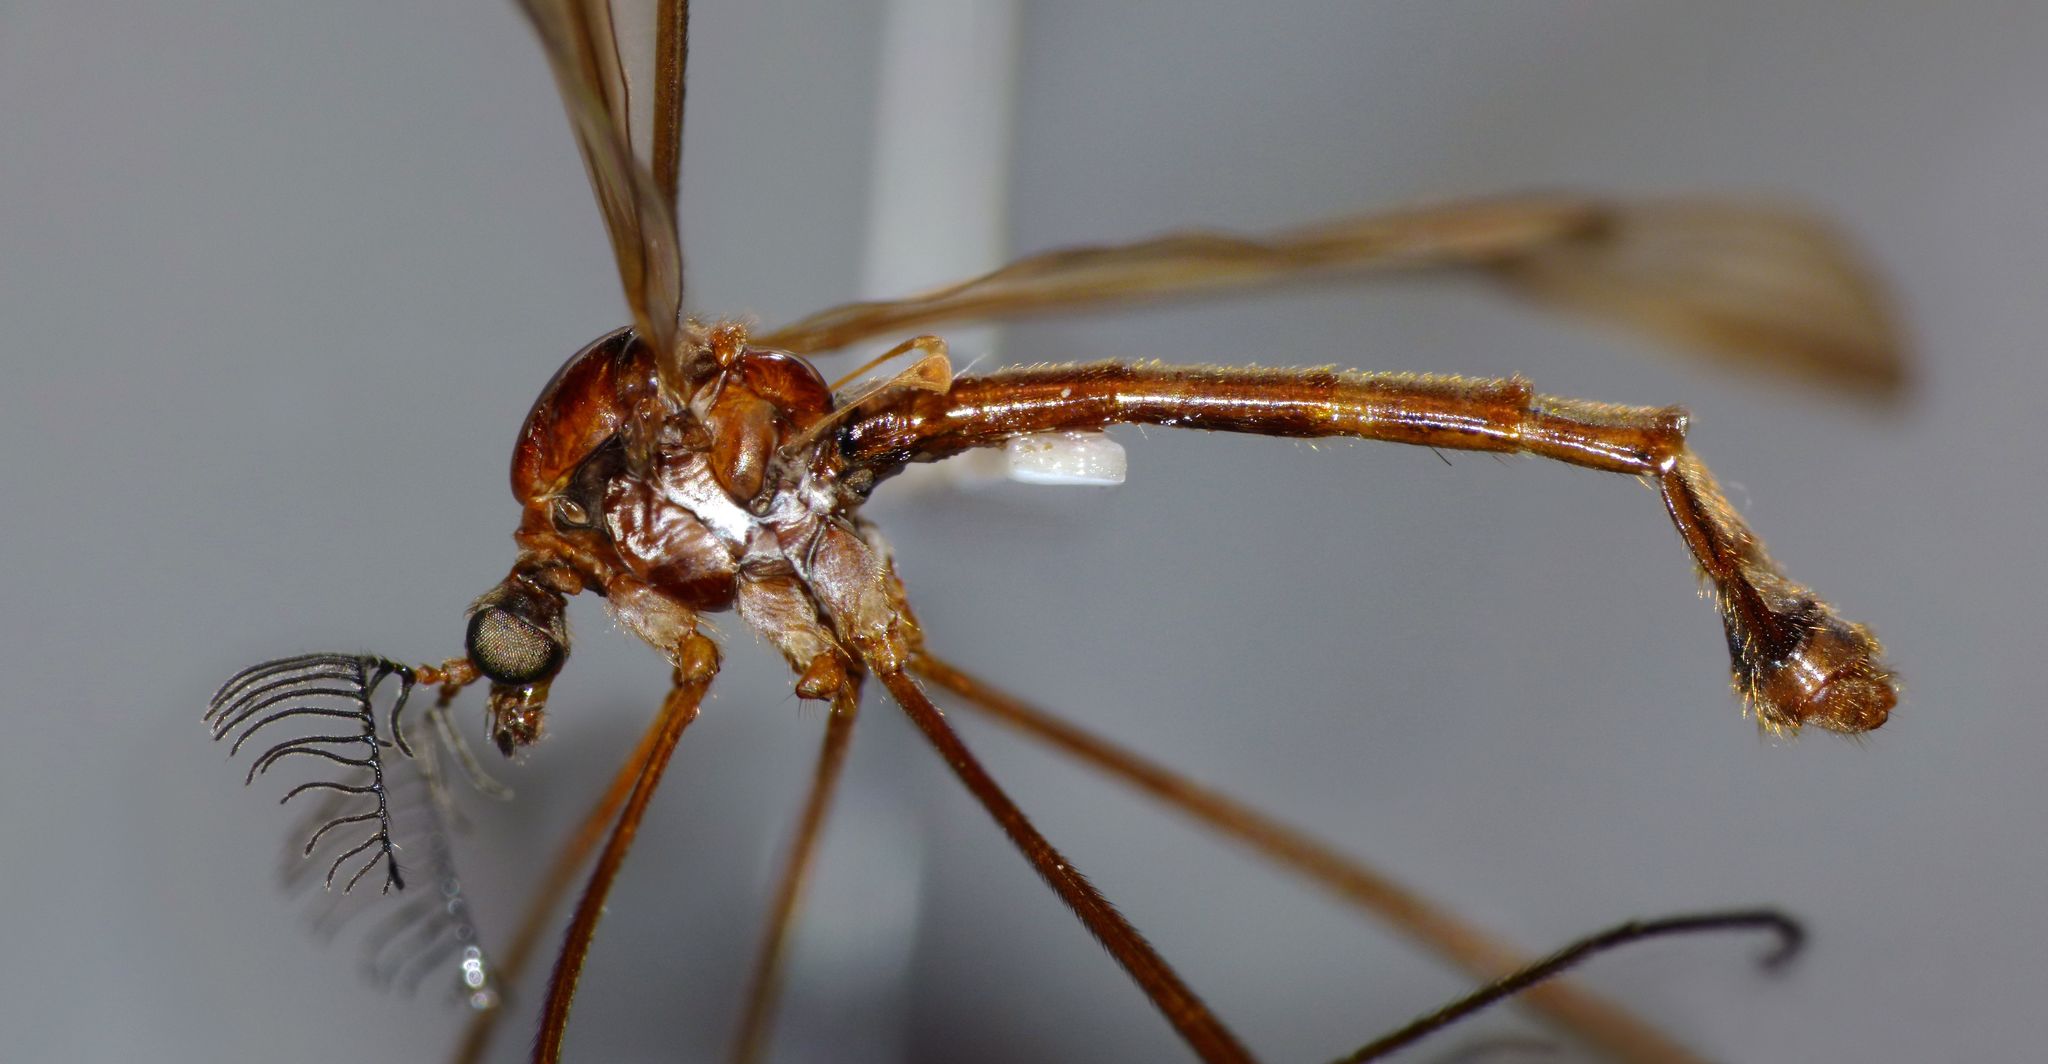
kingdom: Animalia
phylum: Arthropoda
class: Insecta
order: Diptera
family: Limoniidae
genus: Gynoplistia
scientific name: Gynoplistia tridactyla
